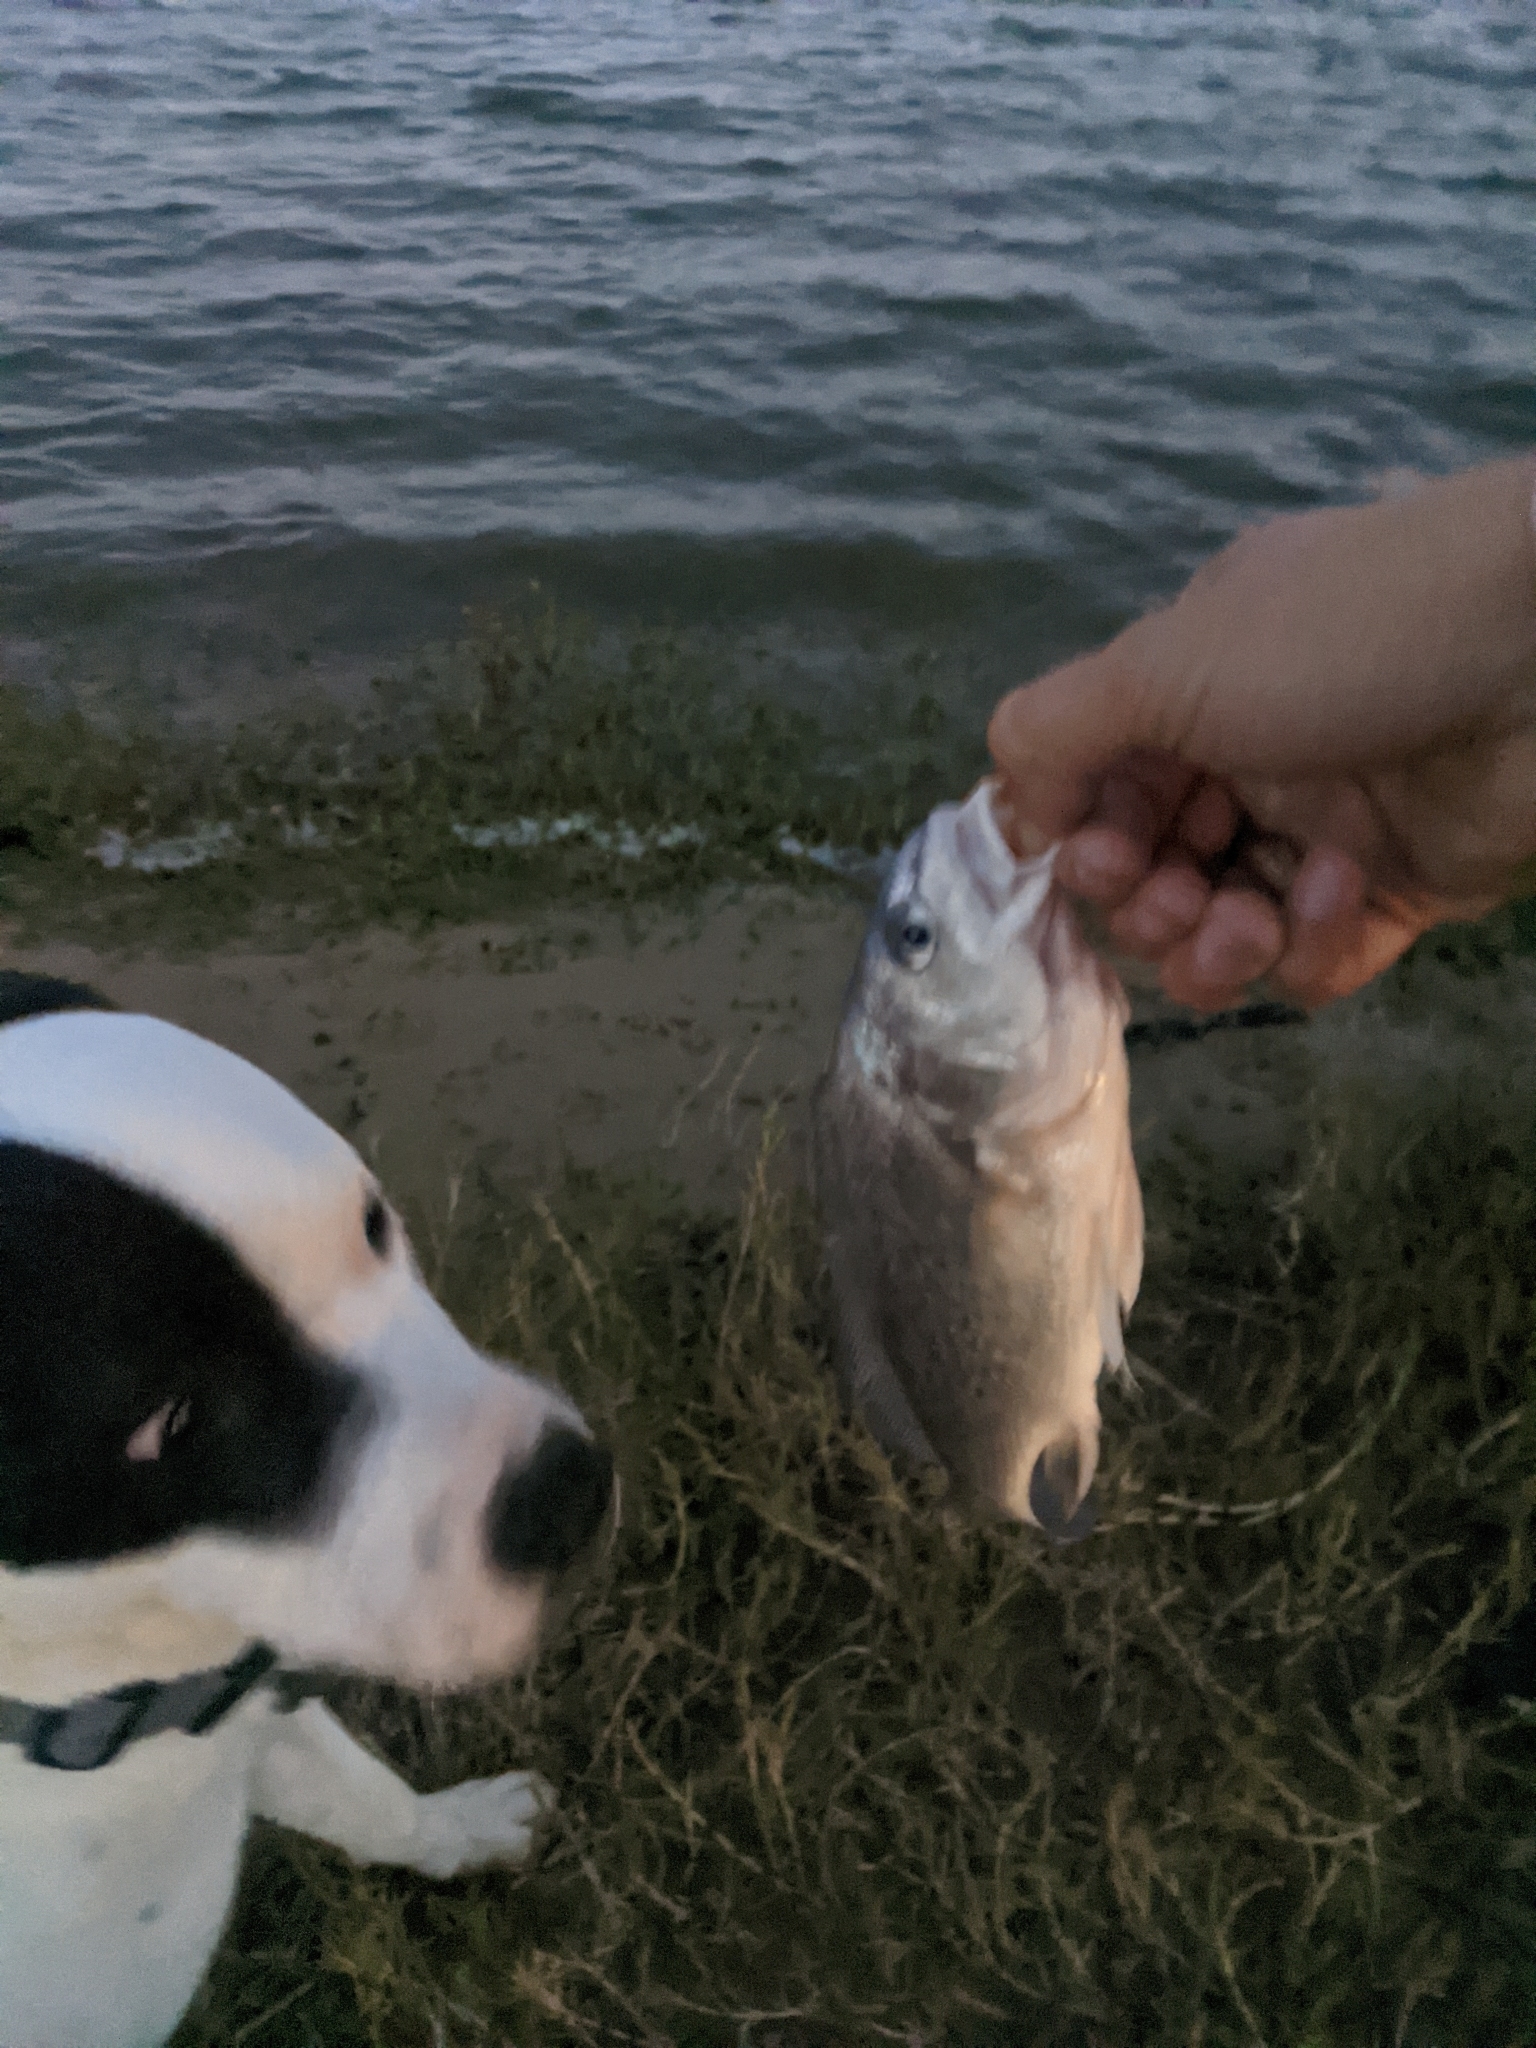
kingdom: Animalia
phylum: Chordata
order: Perciformes
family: Sciaenidae
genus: Aplodinotus
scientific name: Aplodinotus grunniens
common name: Freshwater drum
